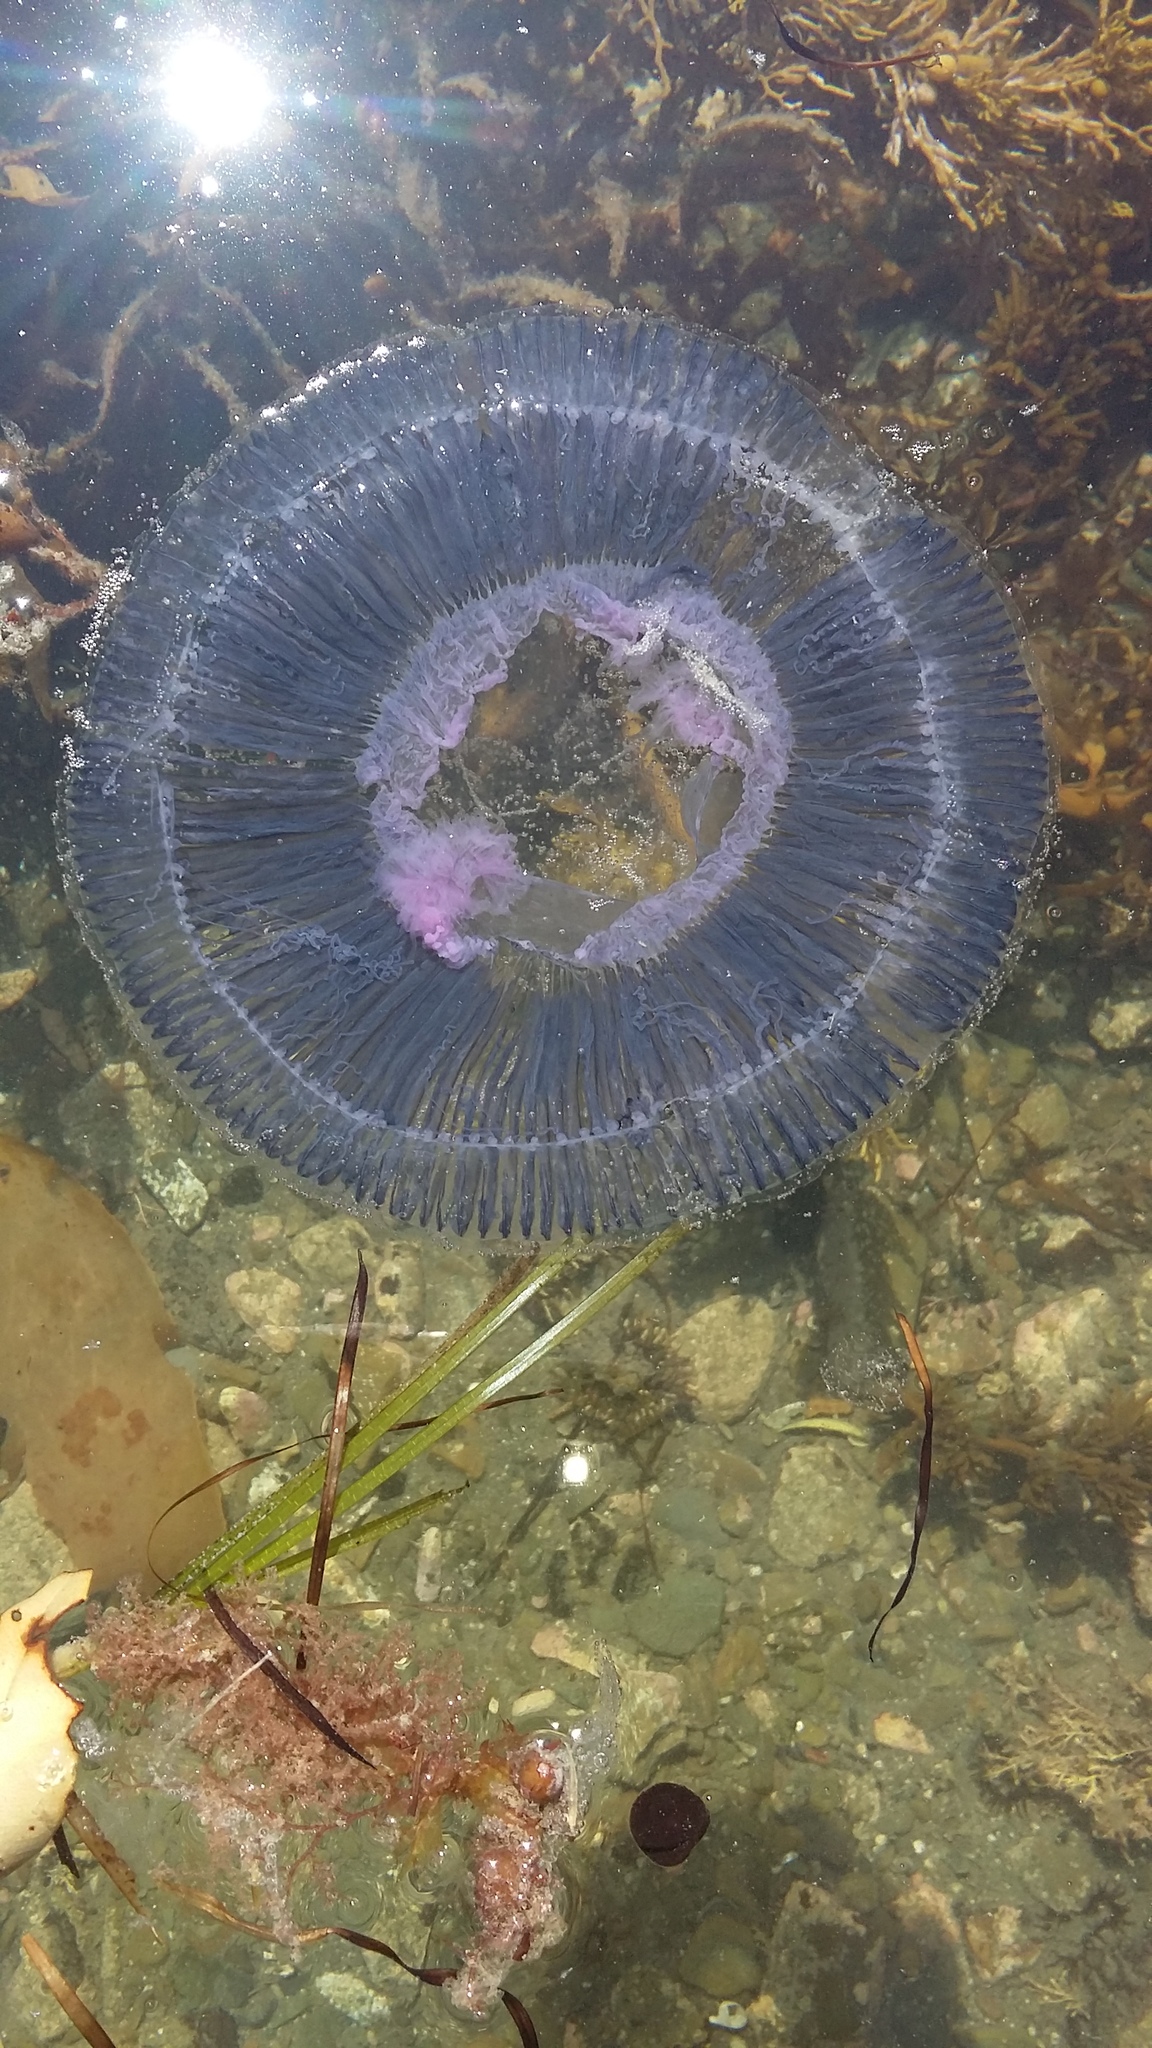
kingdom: Animalia
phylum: Cnidaria
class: Hydrozoa
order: Leptothecata
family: Aequoreidae
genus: Aequorea
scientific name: Aequorea forskalea
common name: Many-ribbed jellyfish
